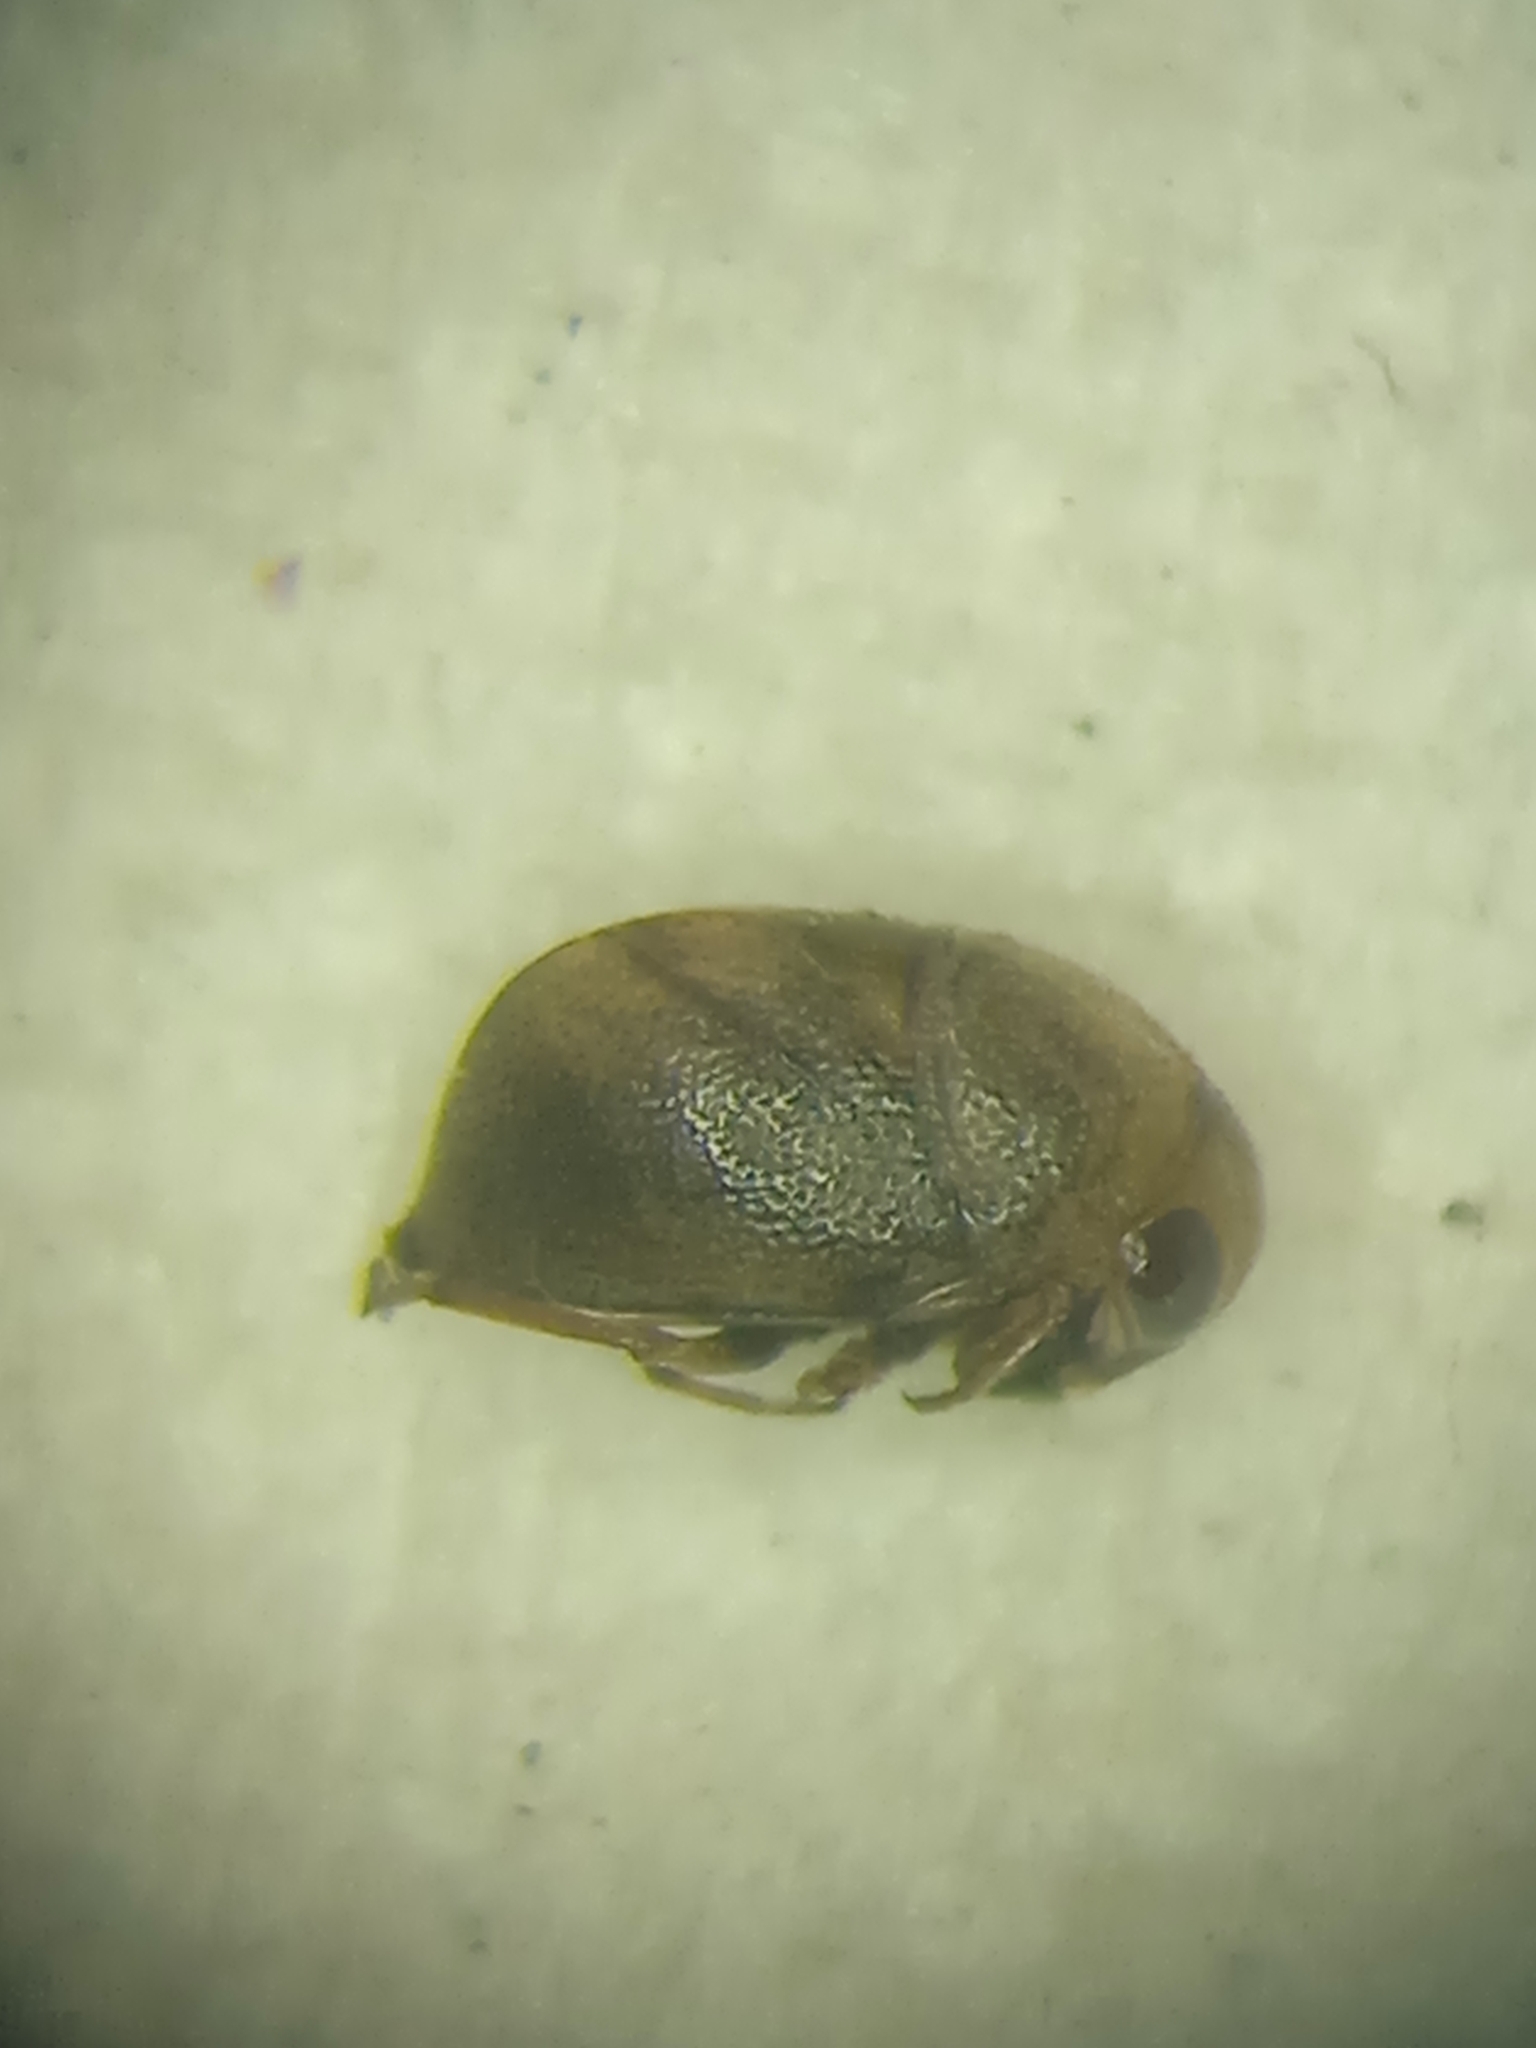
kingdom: Animalia
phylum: Arthropoda
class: Insecta
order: Hemiptera
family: Pleidae
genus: Plea
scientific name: Plea minutissima
